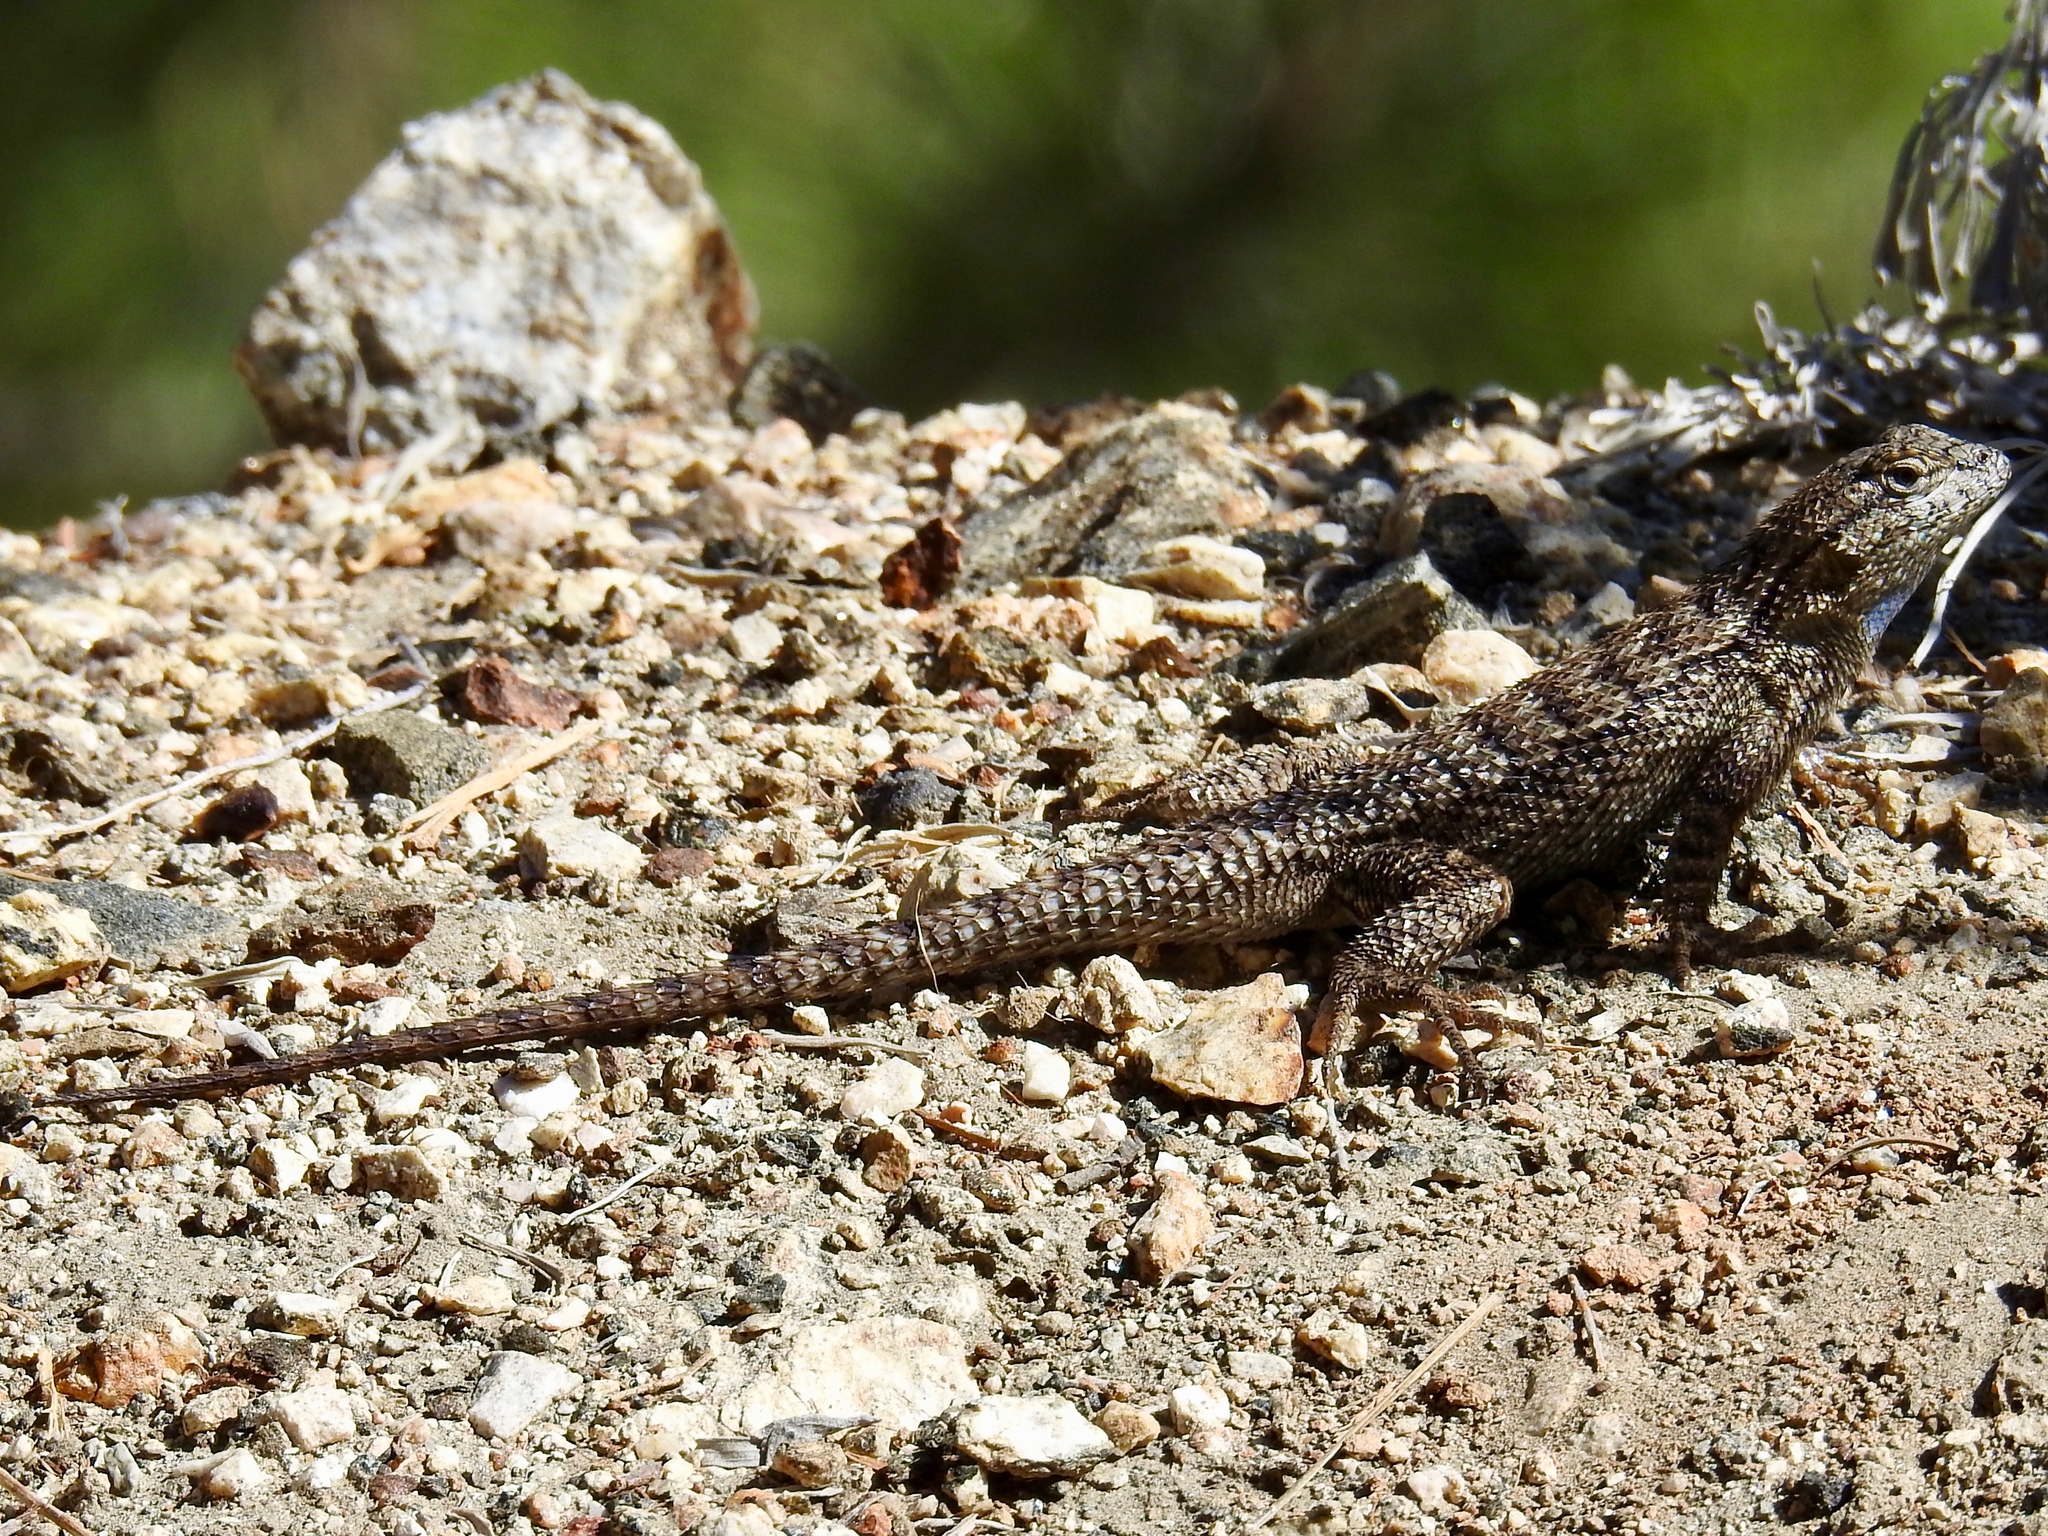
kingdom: Animalia
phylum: Chordata
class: Squamata
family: Phrynosomatidae
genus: Sceloporus
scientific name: Sceloporus occidentalis
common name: Western fence lizard
